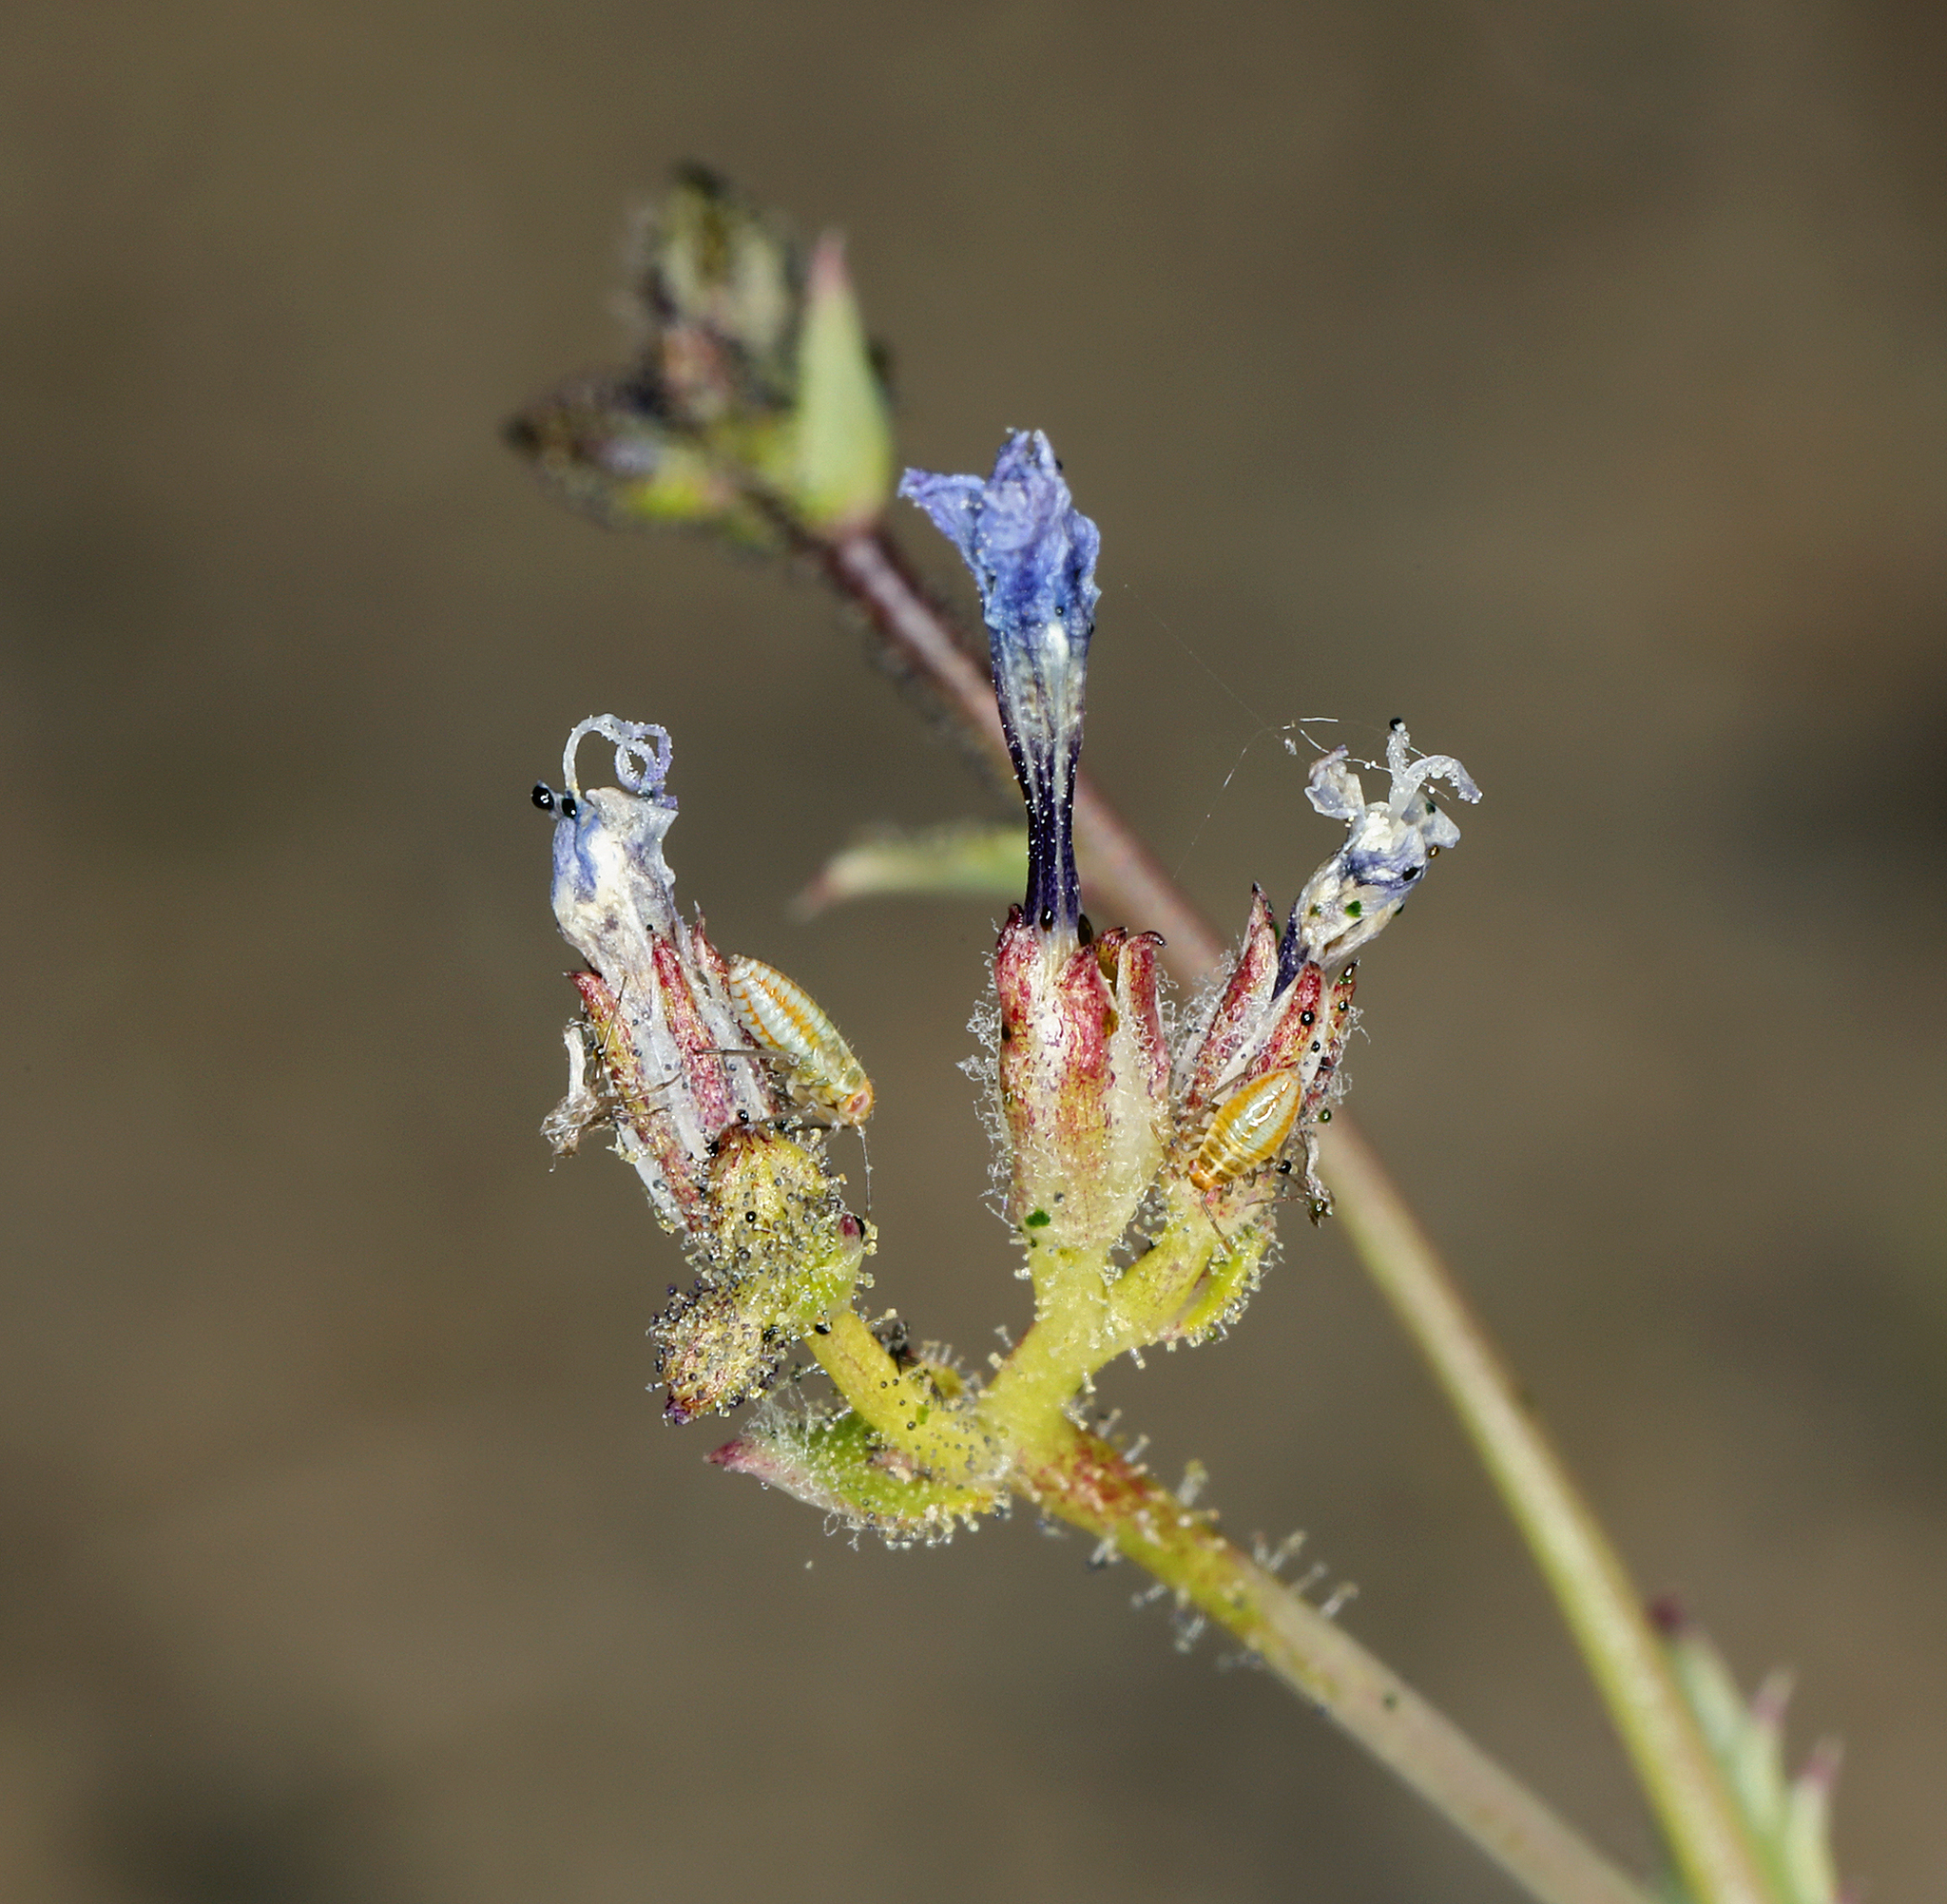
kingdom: Plantae
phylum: Tracheophyta
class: Magnoliopsida
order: Ericales
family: Polemoniaceae
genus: Gilia
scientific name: Gilia sinuata
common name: Rosy gilia
